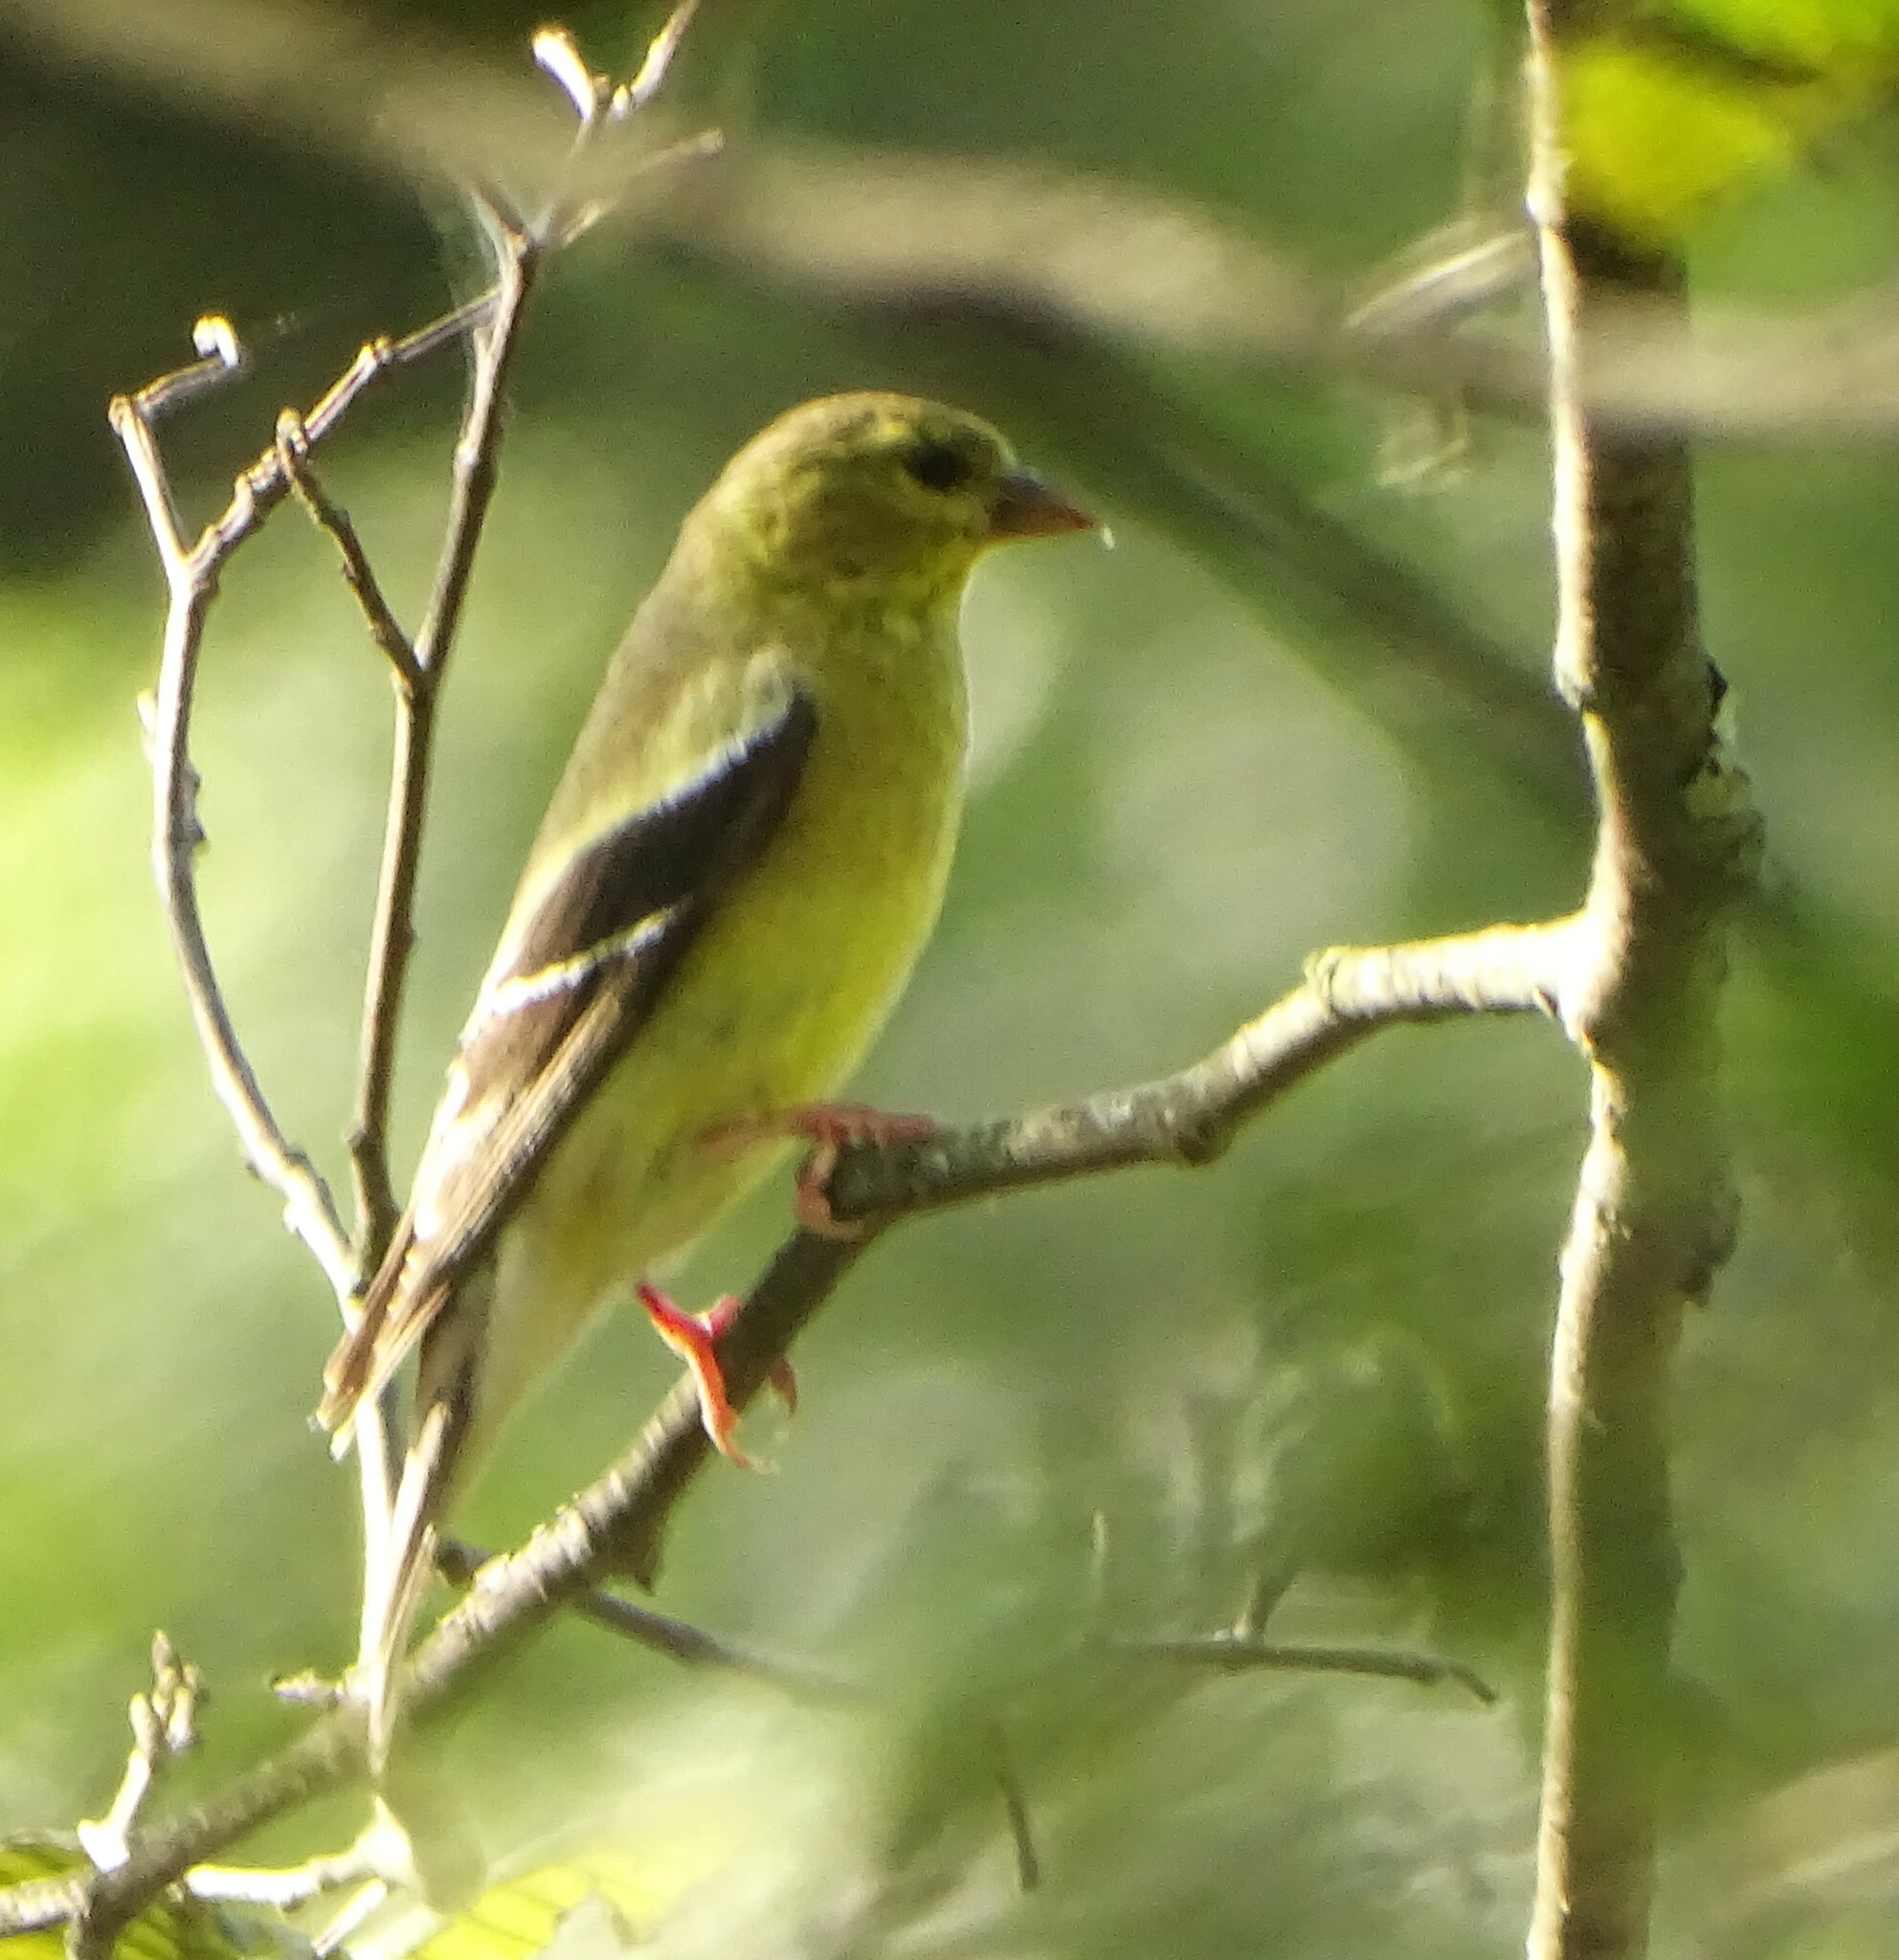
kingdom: Animalia
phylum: Chordata
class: Aves
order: Passeriformes
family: Fringillidae
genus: Spinus
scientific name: Spinus tristis
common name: American goldfinch
